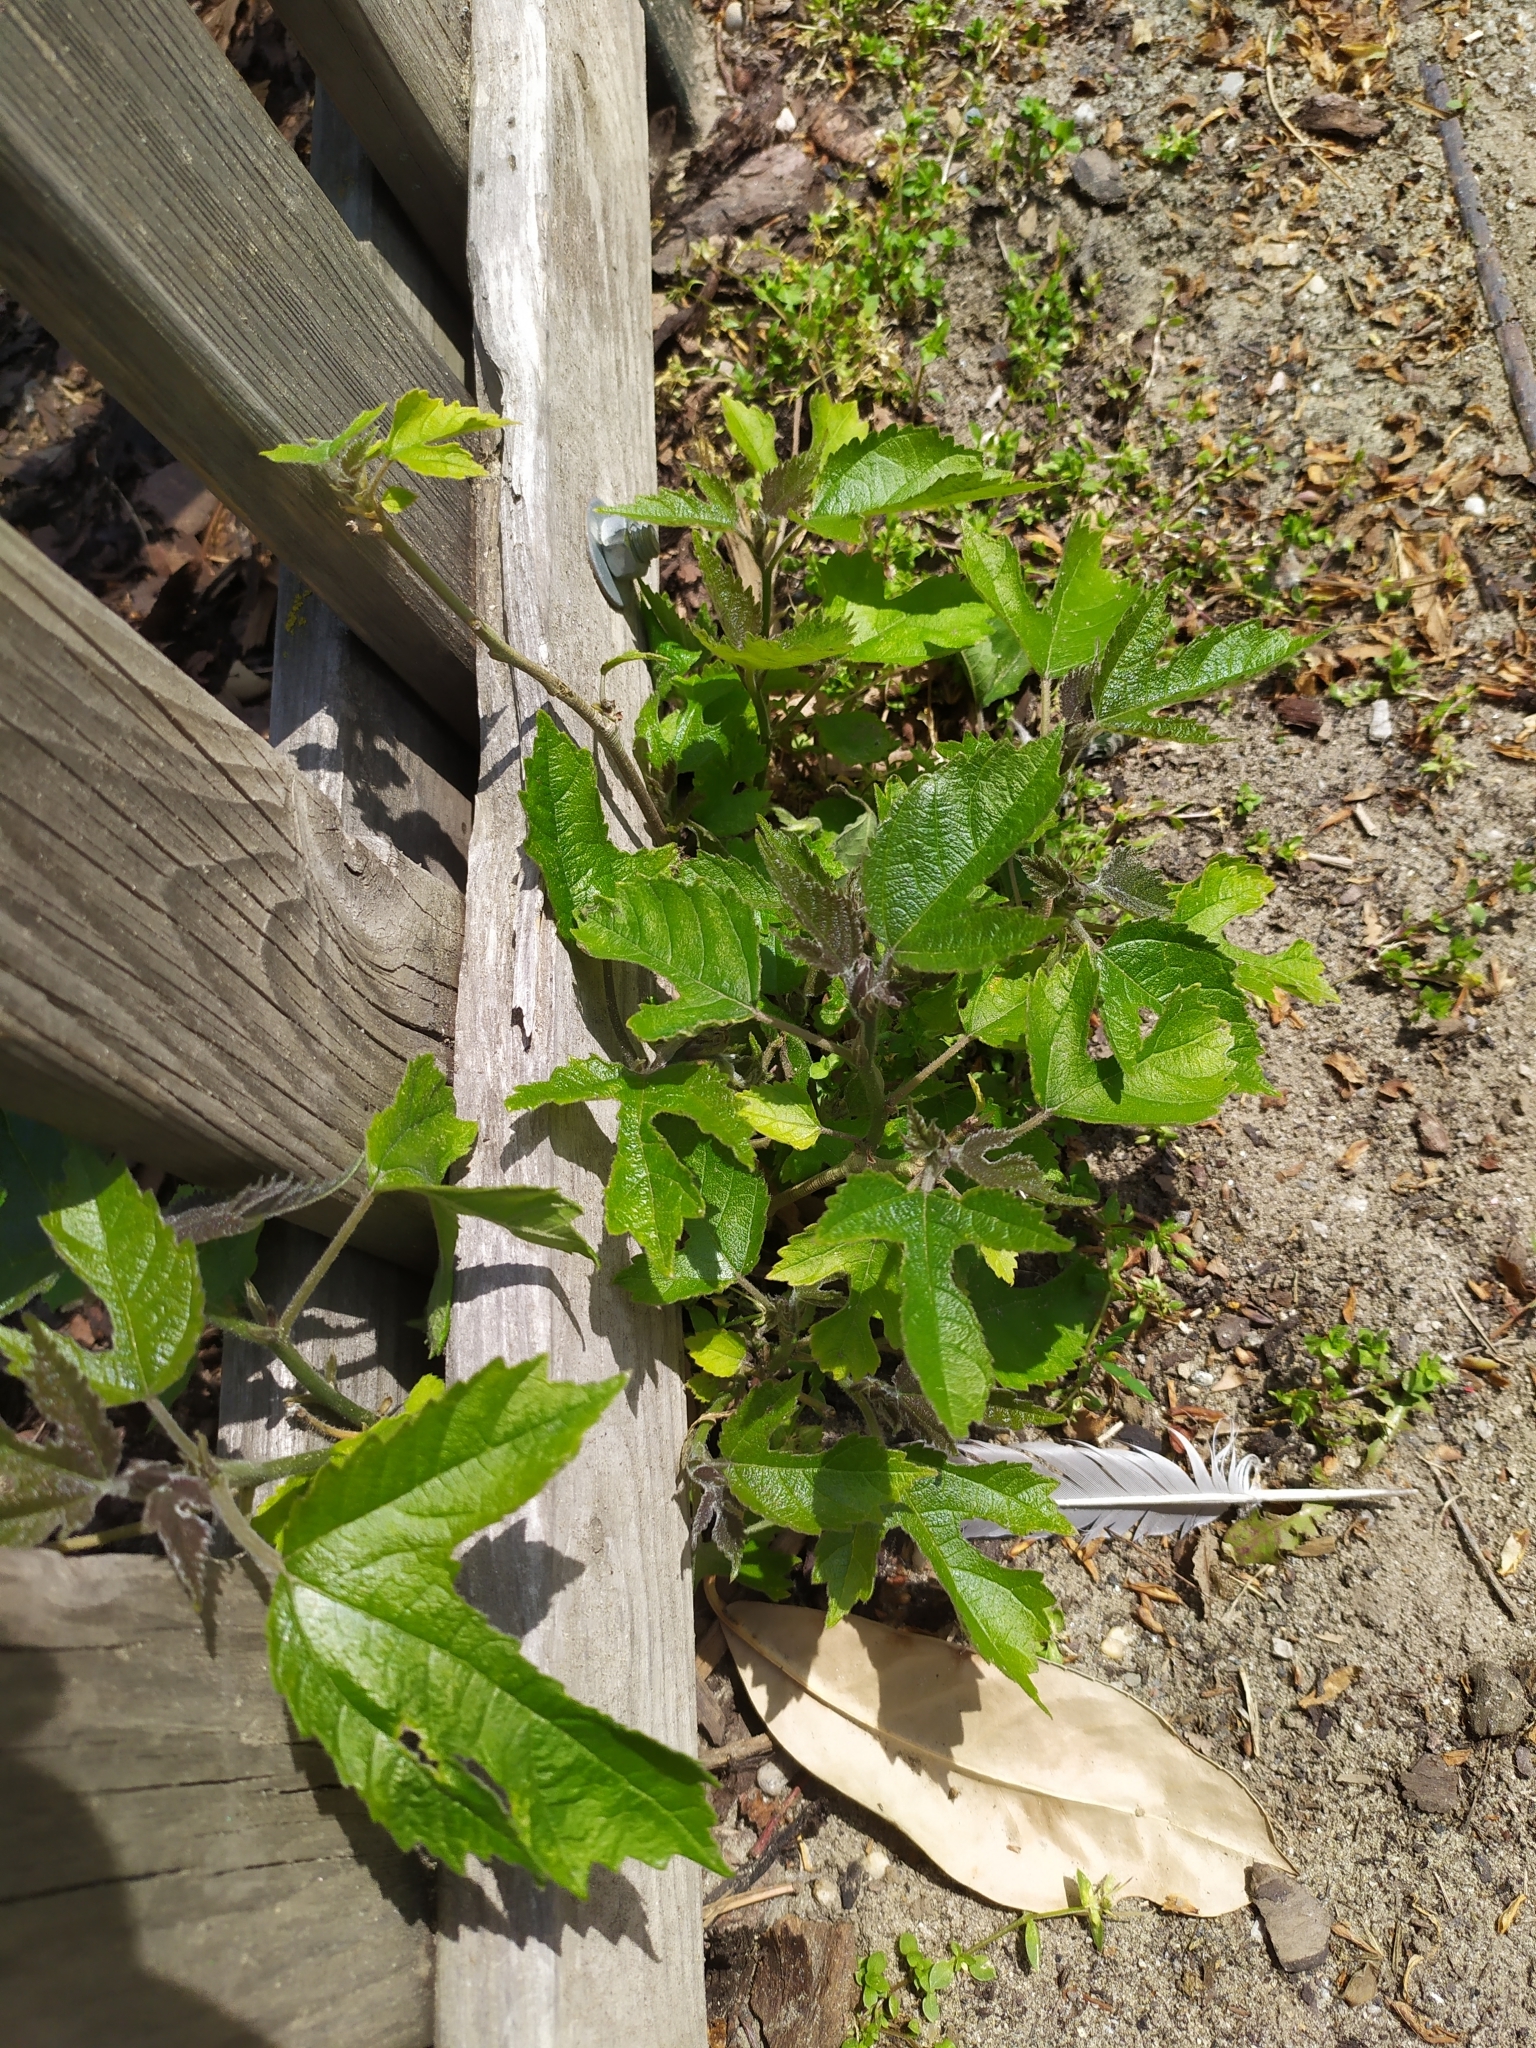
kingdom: Plantae
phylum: Tracheophyta
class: Magnoliopsida
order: Rosales
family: Moraceae
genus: Broussonetia
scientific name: Broussonetia papyrifera
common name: Paper mulberry
